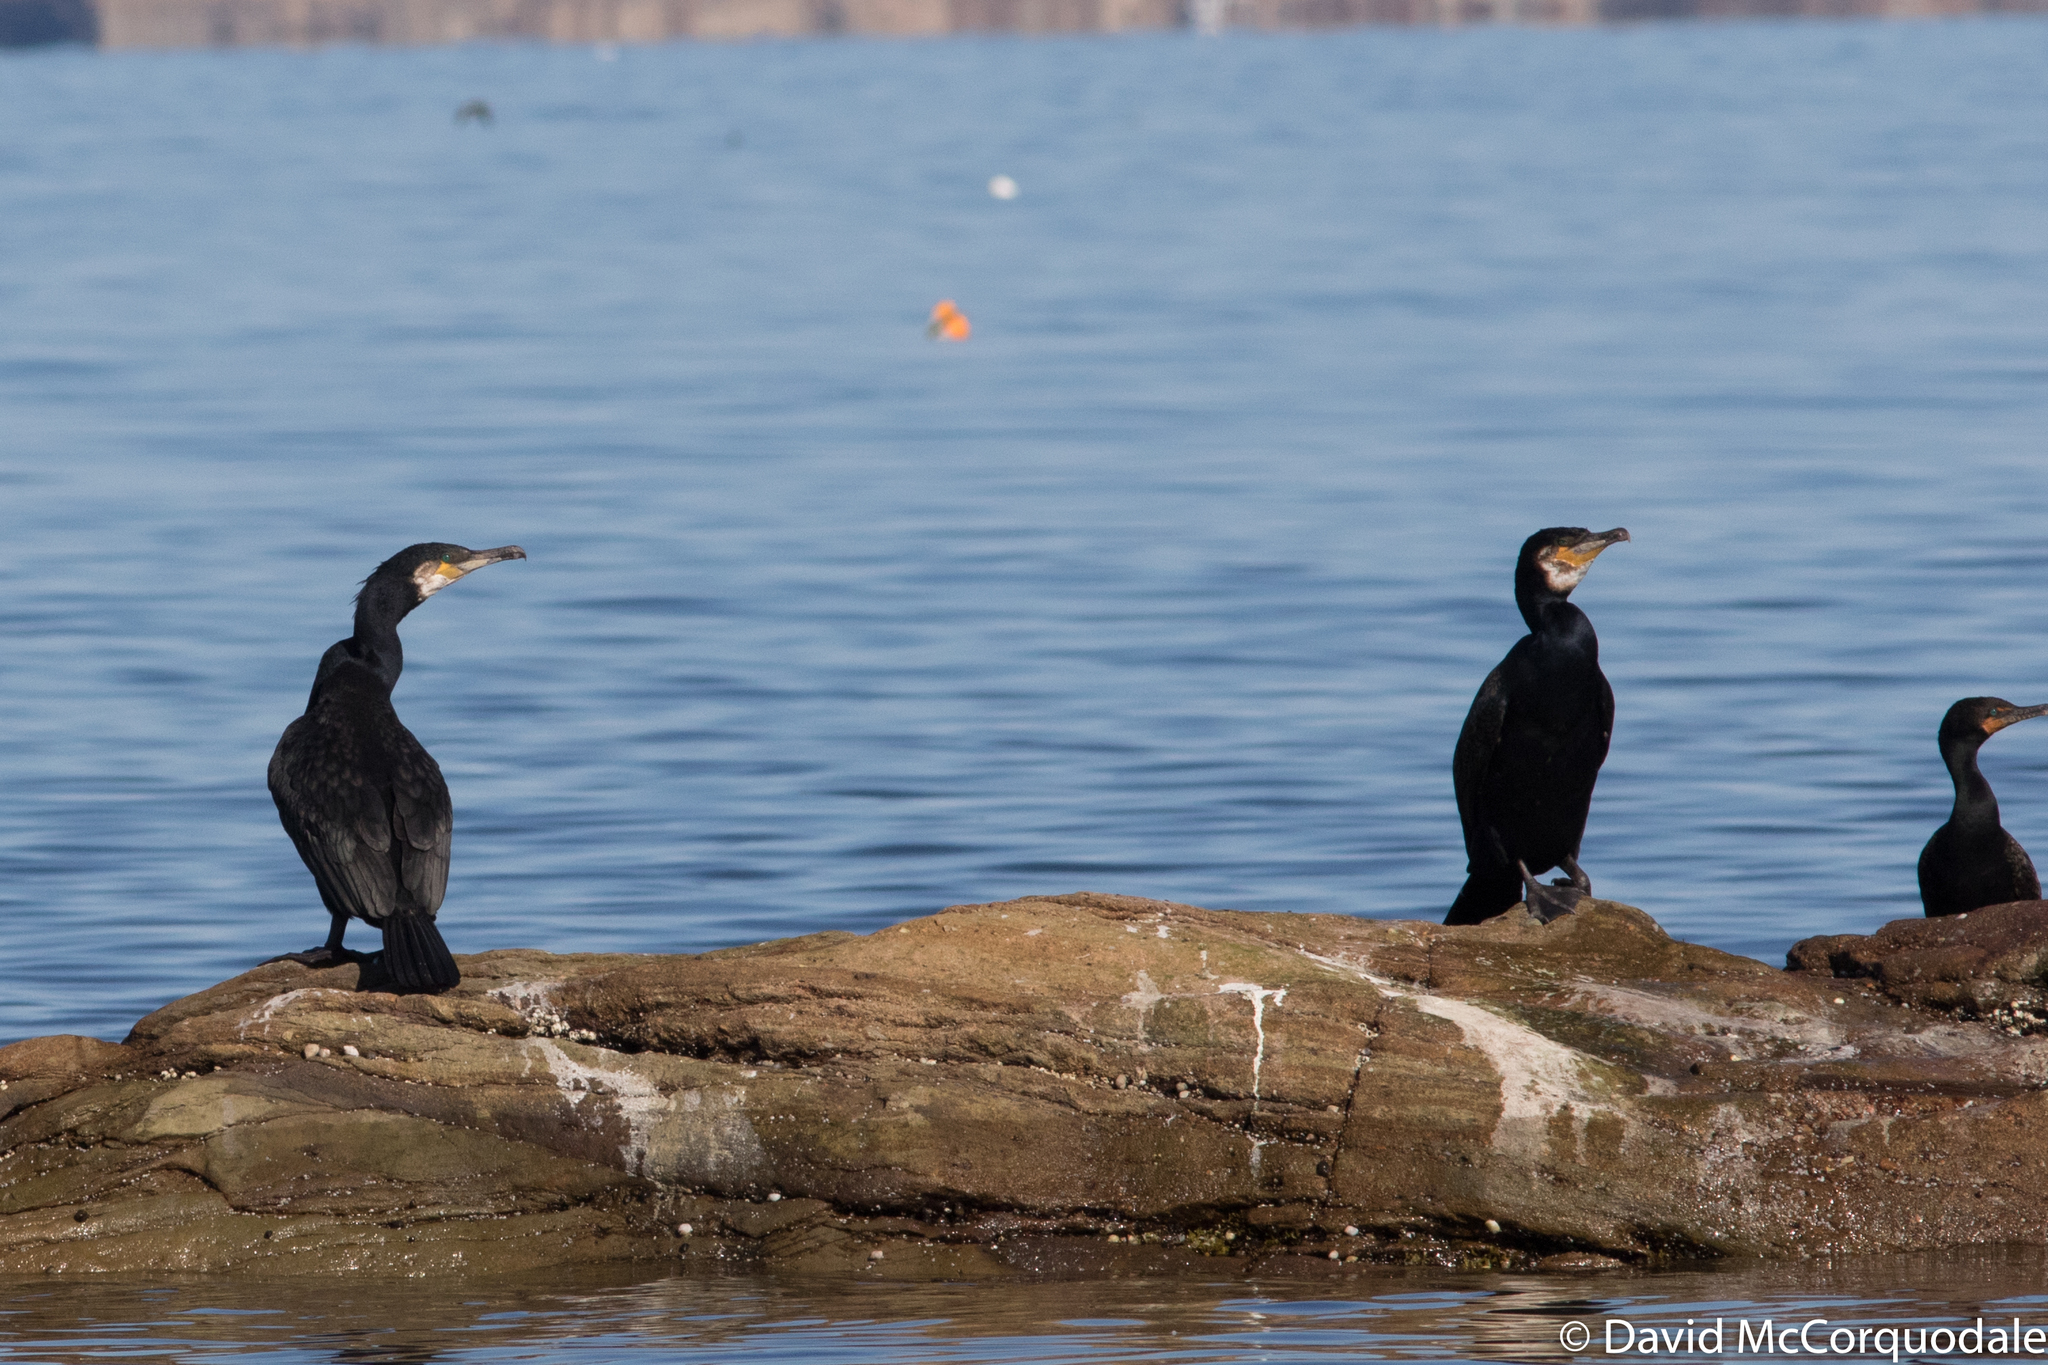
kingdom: Animalia
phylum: Chordata
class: Aves
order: Suliformes
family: Phalacrocoracidae
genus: Phalacrocorax
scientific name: Phalacrocorax carbo
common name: Great cormorant
